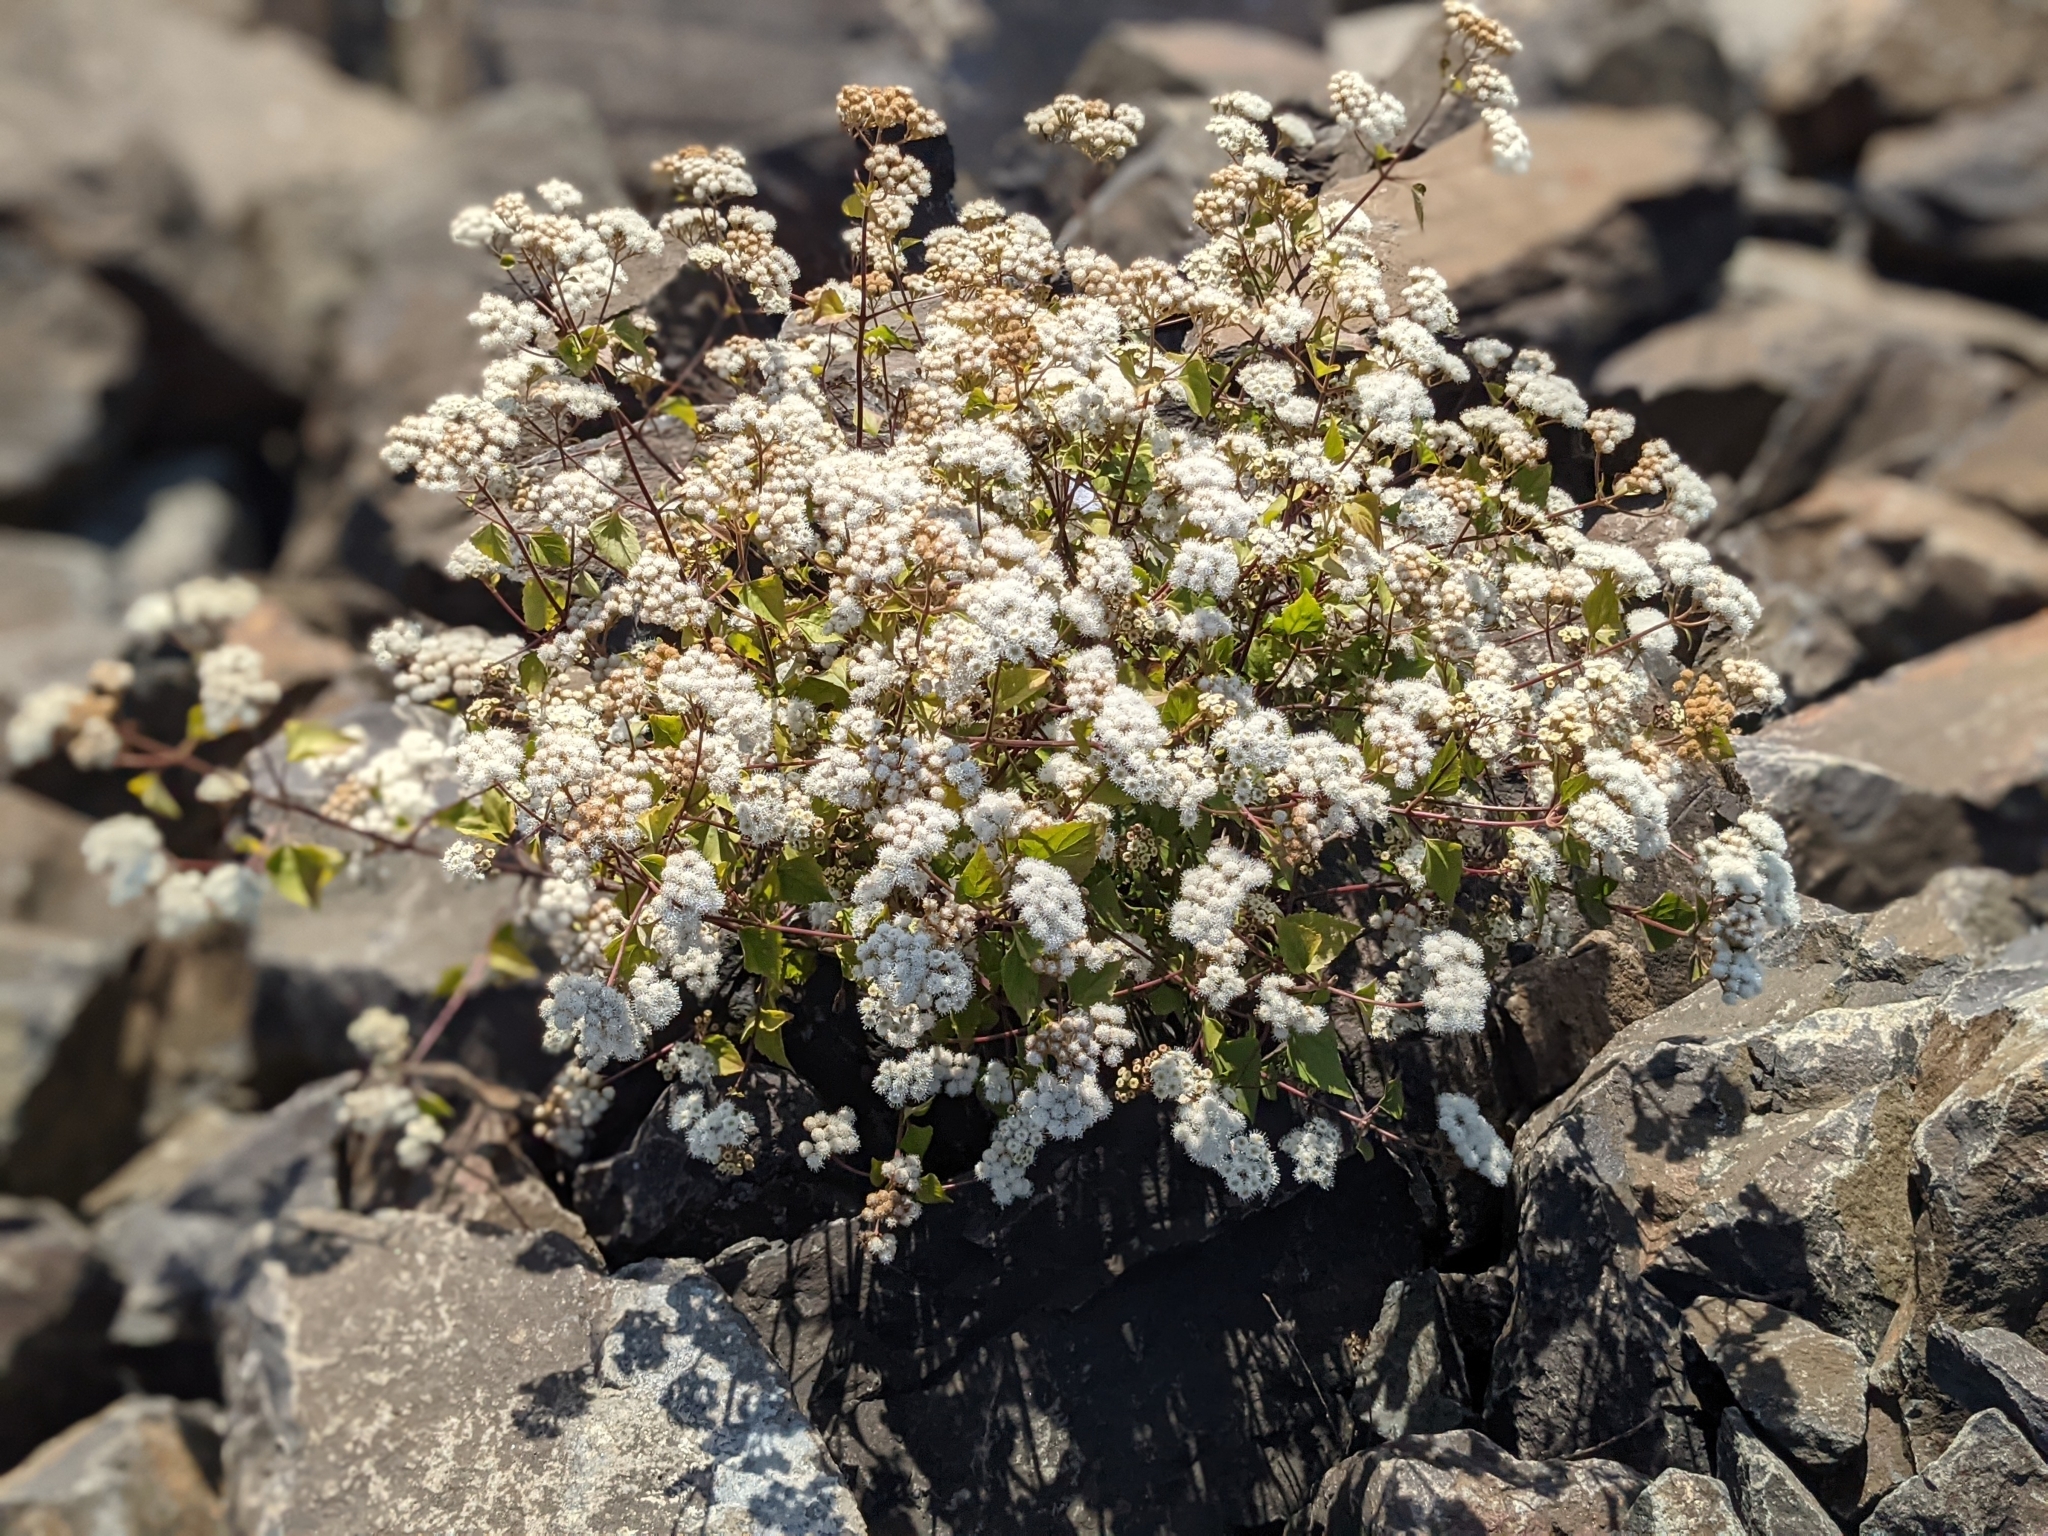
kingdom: Plantae
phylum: Tracheophyta
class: Magnoliopsida
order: Asterales
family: Asteraceae
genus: Ageratina
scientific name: Ageratina adenophora
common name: Sticky snakeroot
